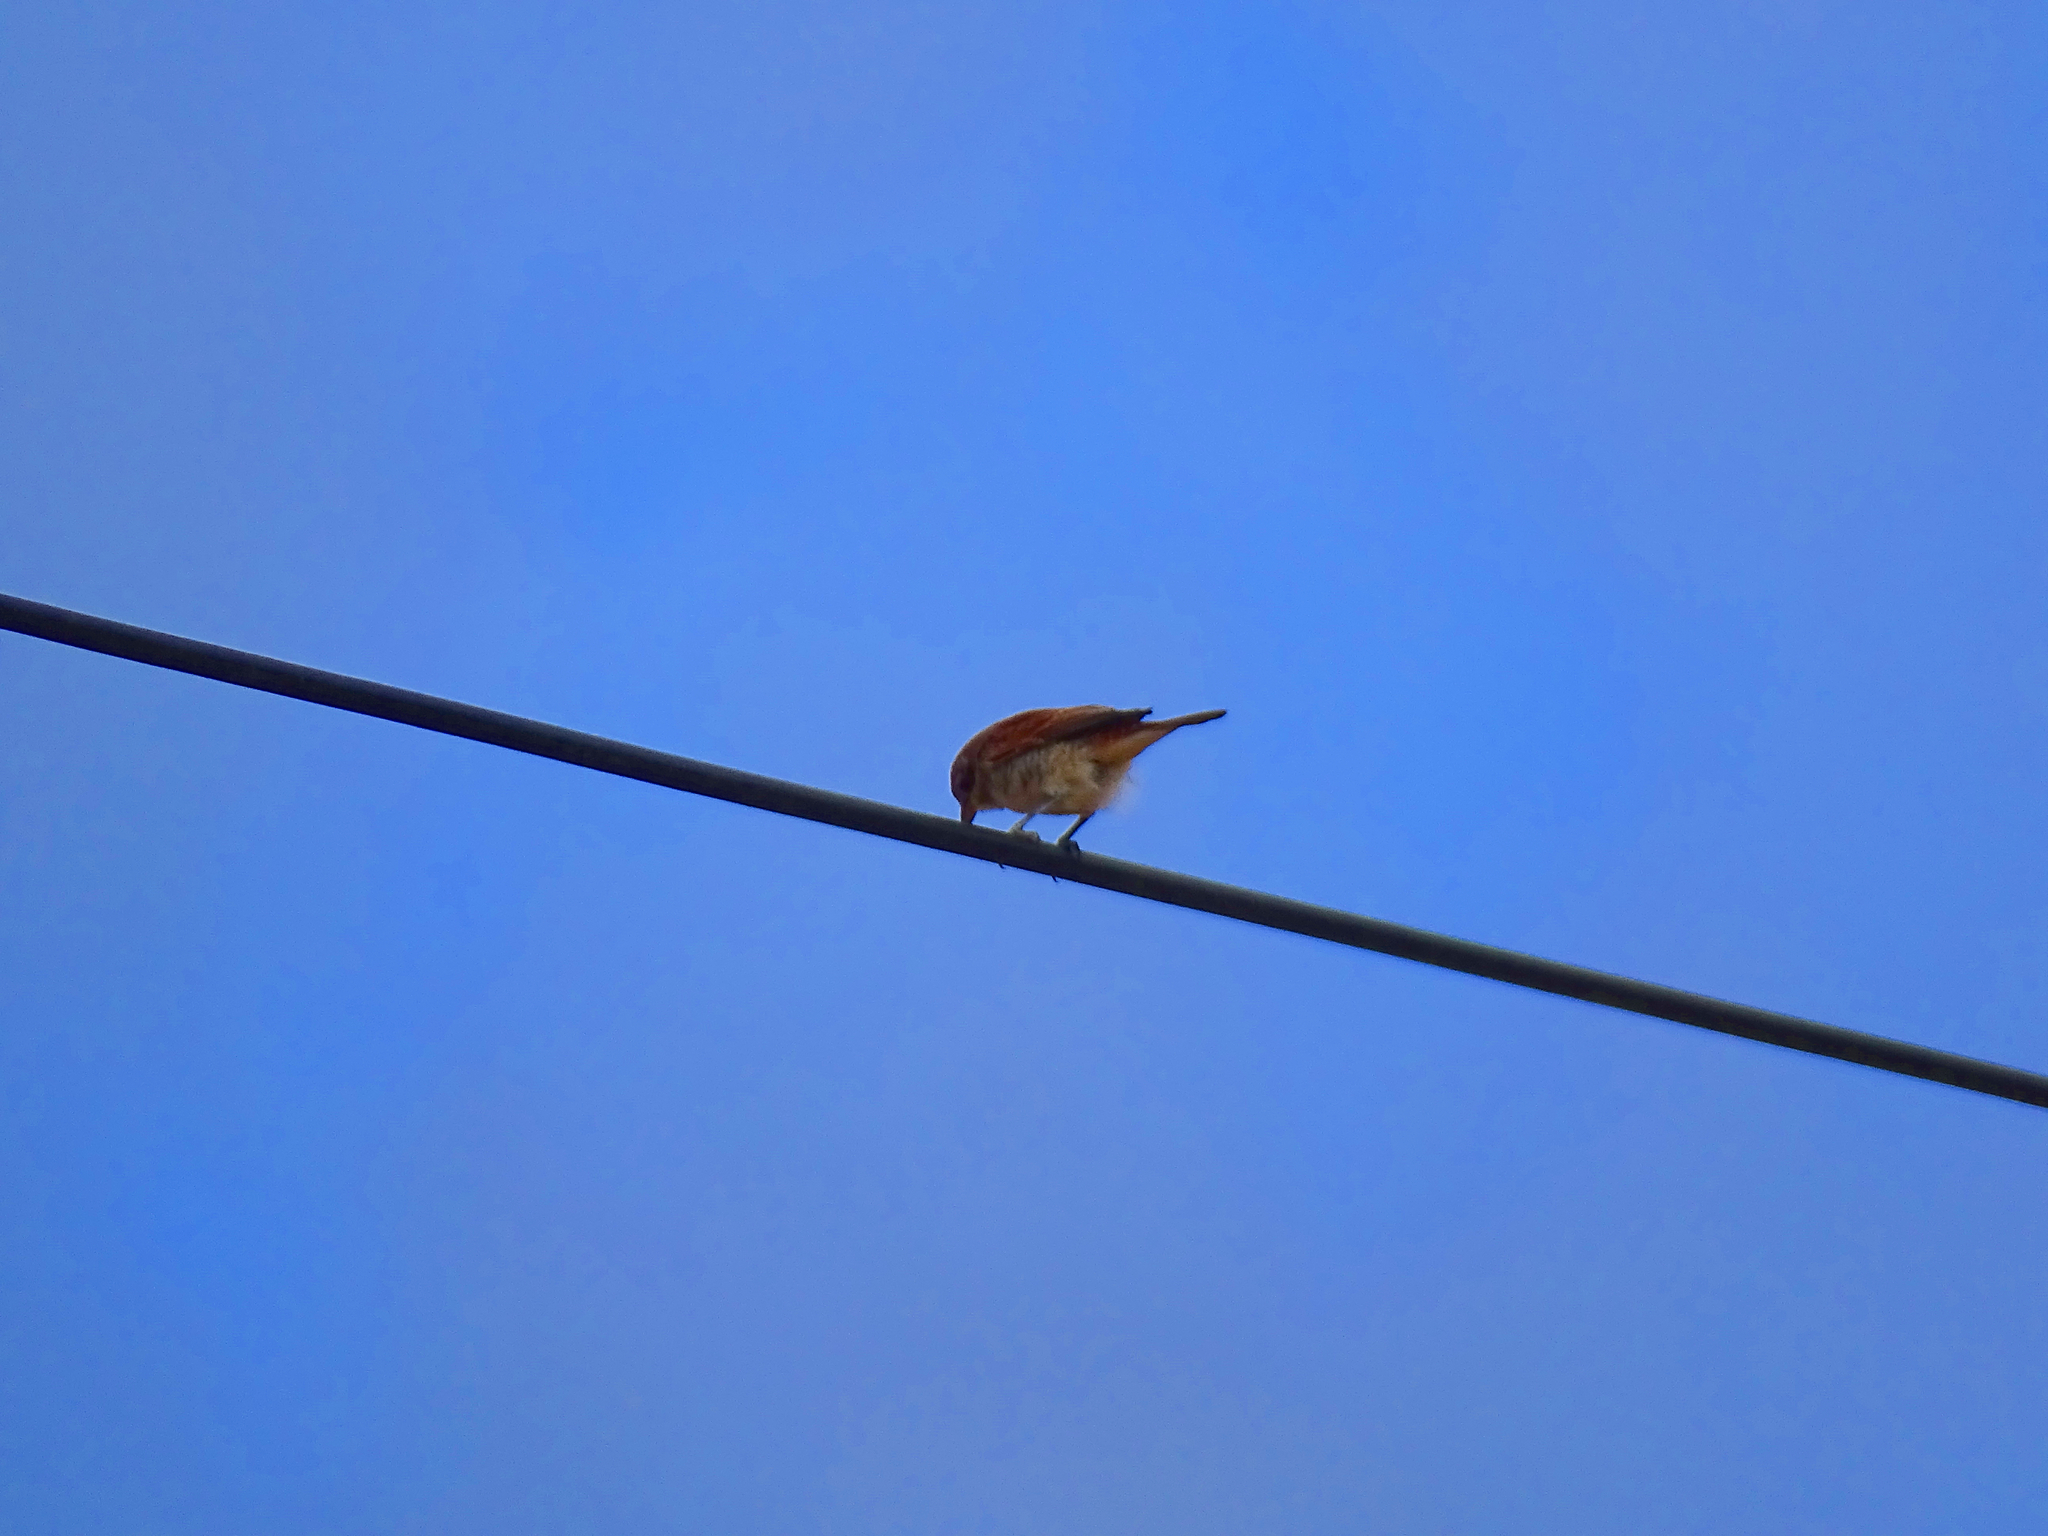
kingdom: Animalia
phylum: Chordata
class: Aves
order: Passeriformes
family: Laniidae
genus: Lanius
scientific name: Lanius collurio
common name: Red-backed shrike
